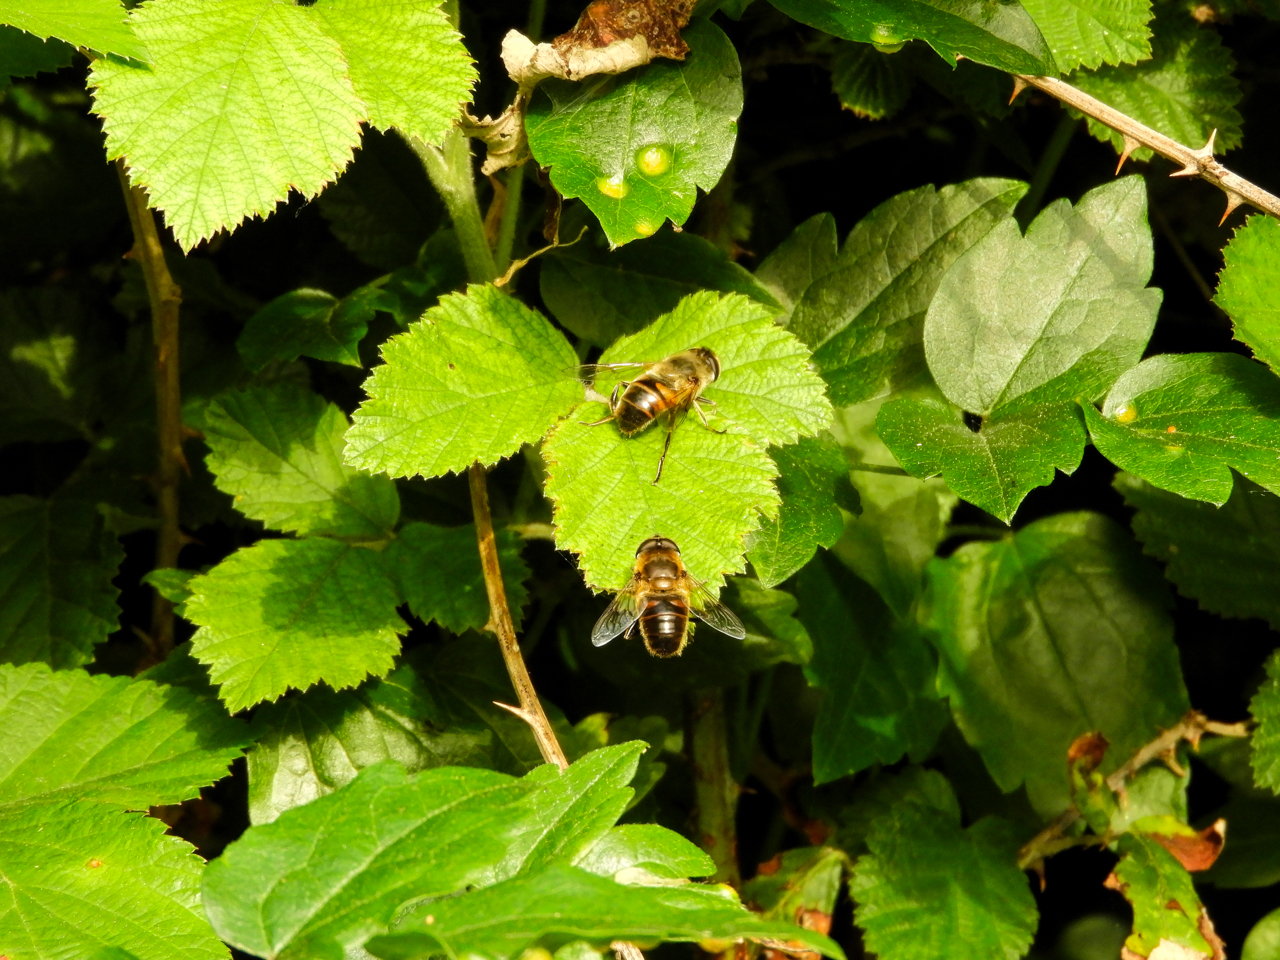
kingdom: Animalia
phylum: Arthropoda
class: Insecta
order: Diptera
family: Syrphidae
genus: Eristalis
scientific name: Eristalis tenax
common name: Drone fly
